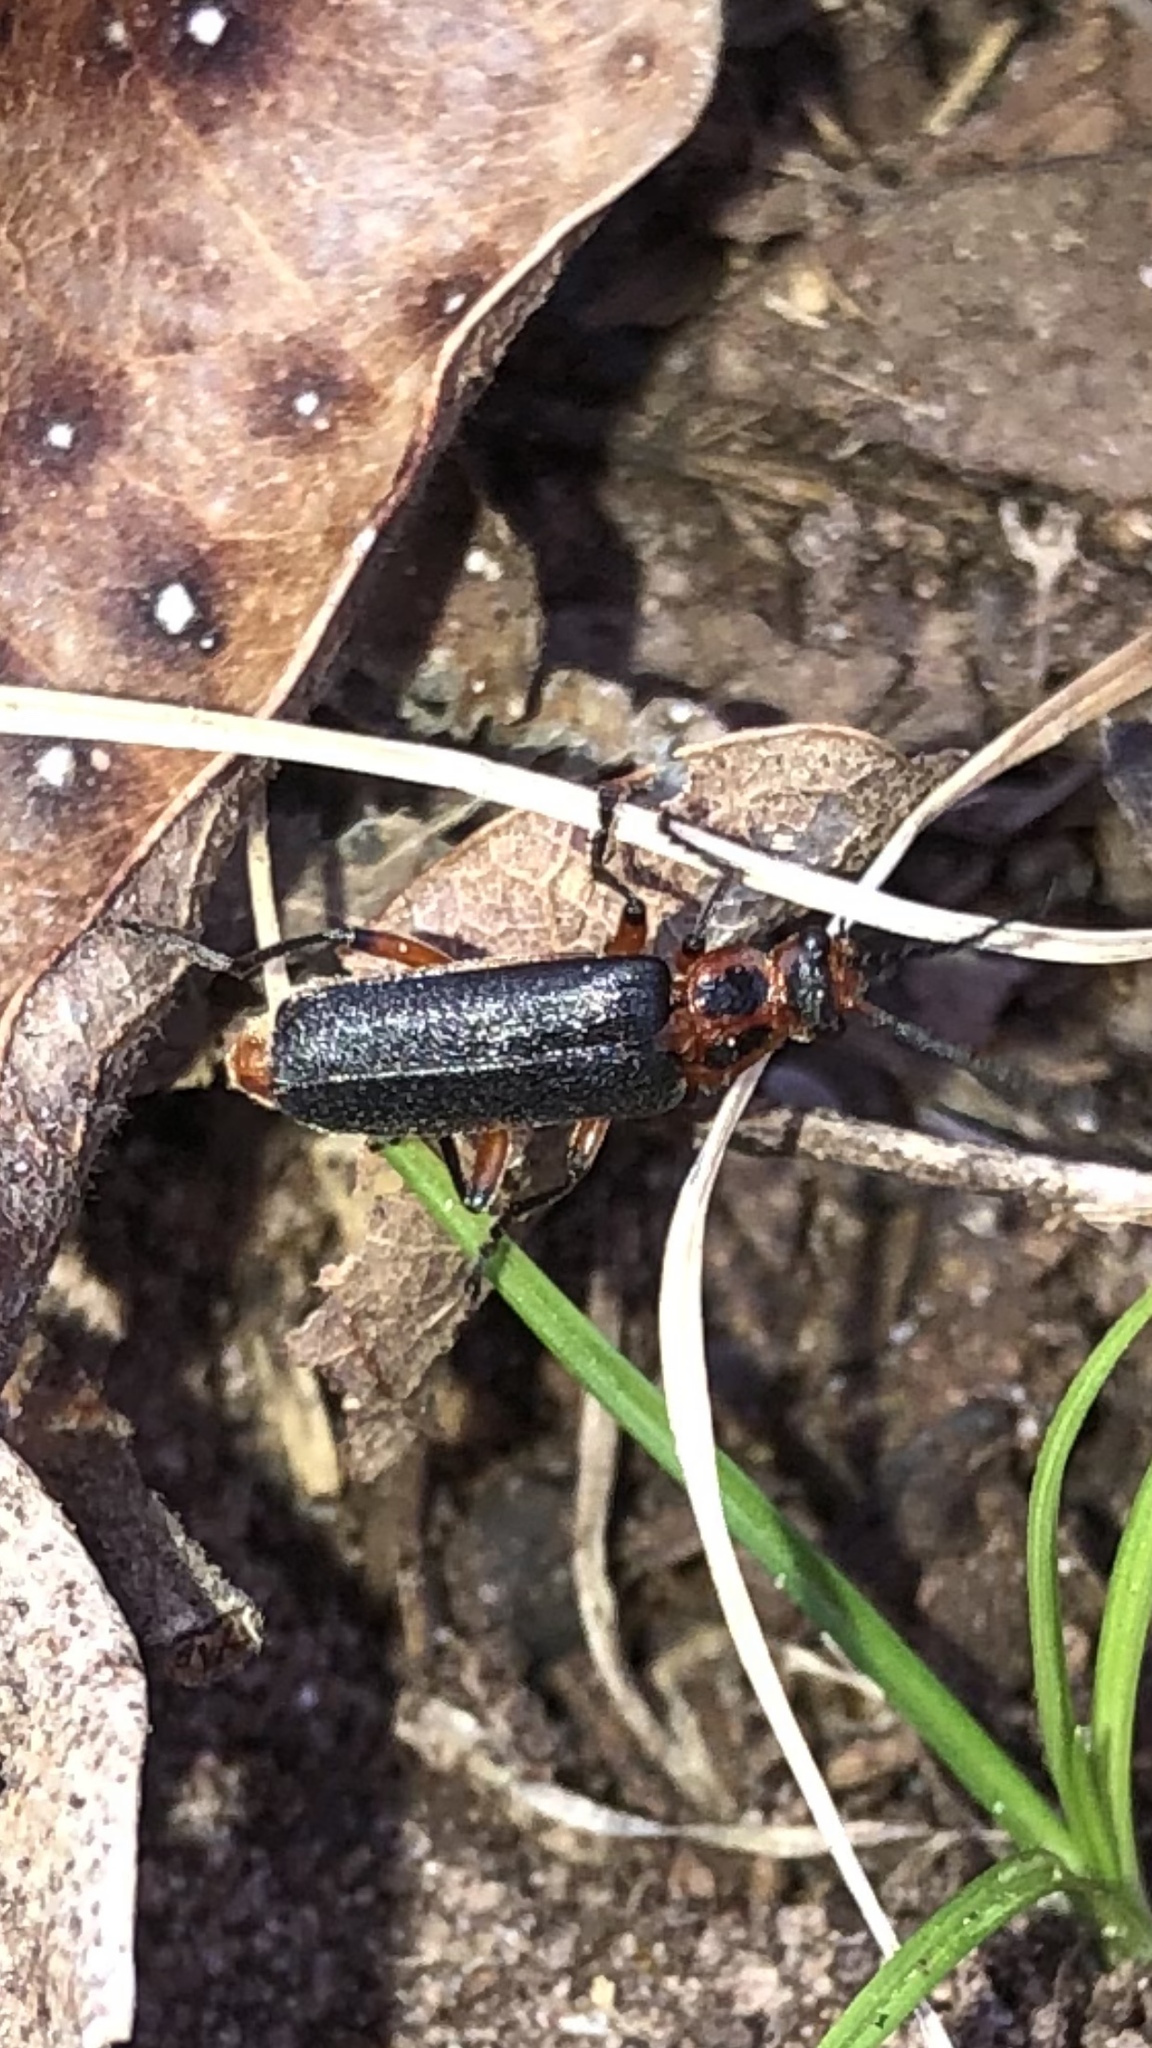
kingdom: Animalia
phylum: Arthropoda
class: Insecta
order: Coleoptera
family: Cantharidae
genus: Atalantycha
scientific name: Atalantycha bilineata
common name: Two-lined leatherwing
